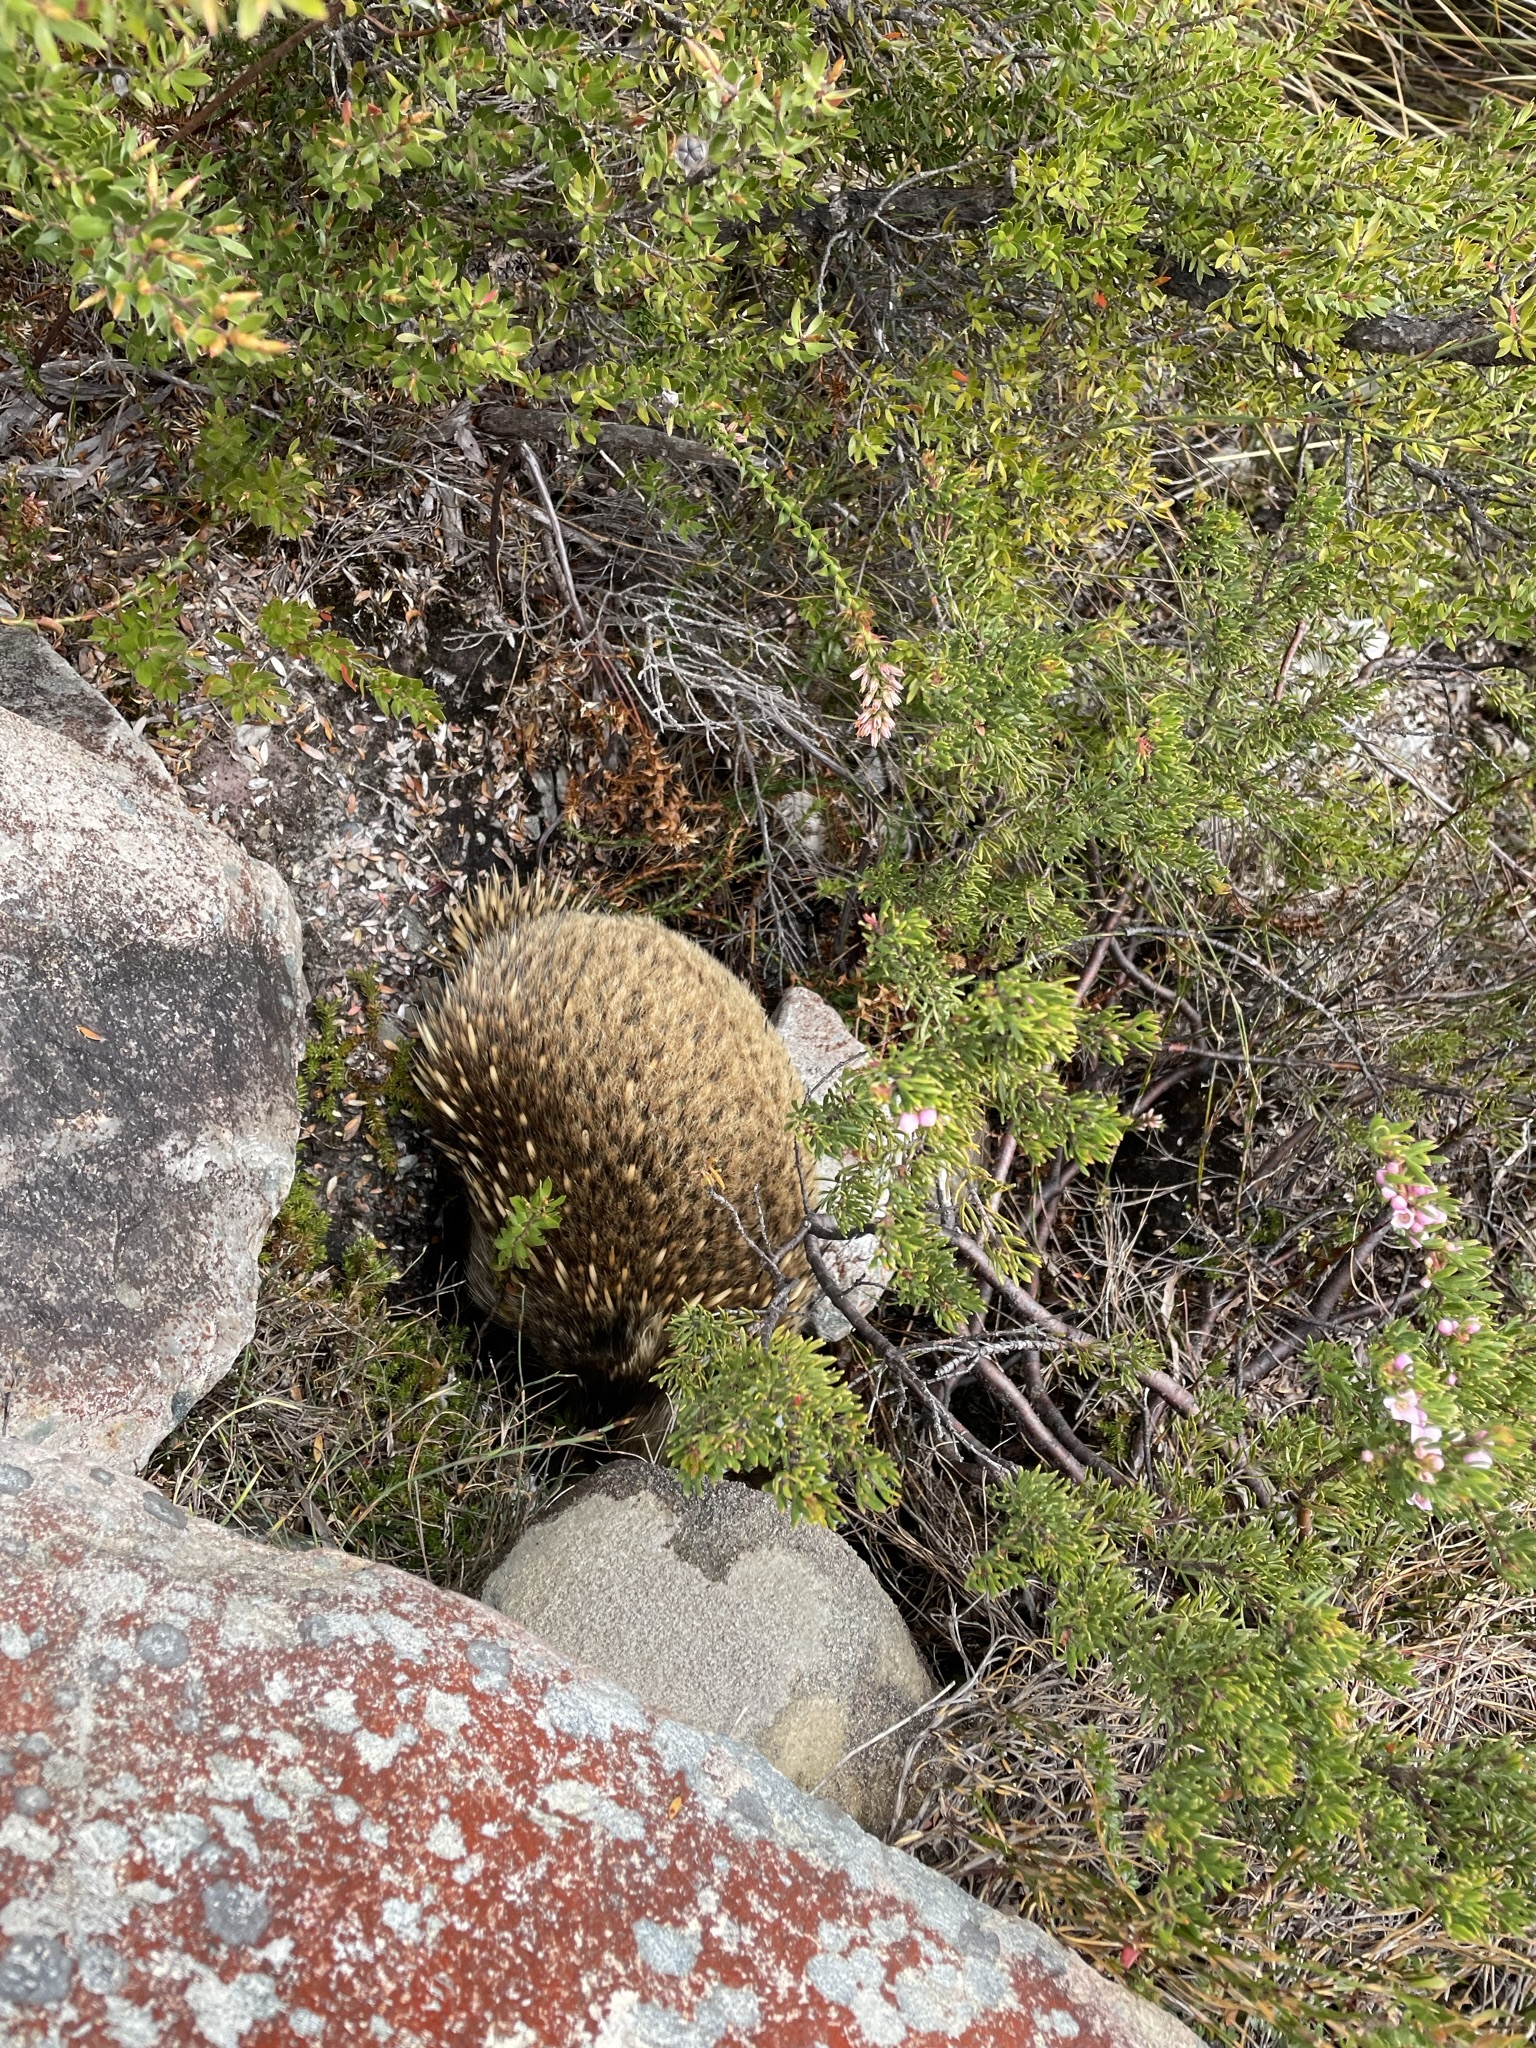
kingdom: Animalia
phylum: Chordata
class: Mammalia
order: Monotremata
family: Tachyglossidae
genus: Tachyglossus
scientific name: Tachyglossus aculeatus
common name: Short-beaked echidna
